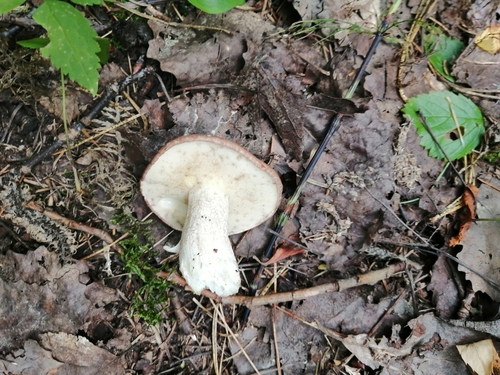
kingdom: Fungi
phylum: Basidiomycota
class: Agaricomycetes
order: Boletales
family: Suillaceae
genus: Suillus
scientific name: Suillus granulatus
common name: Weeping bolete
